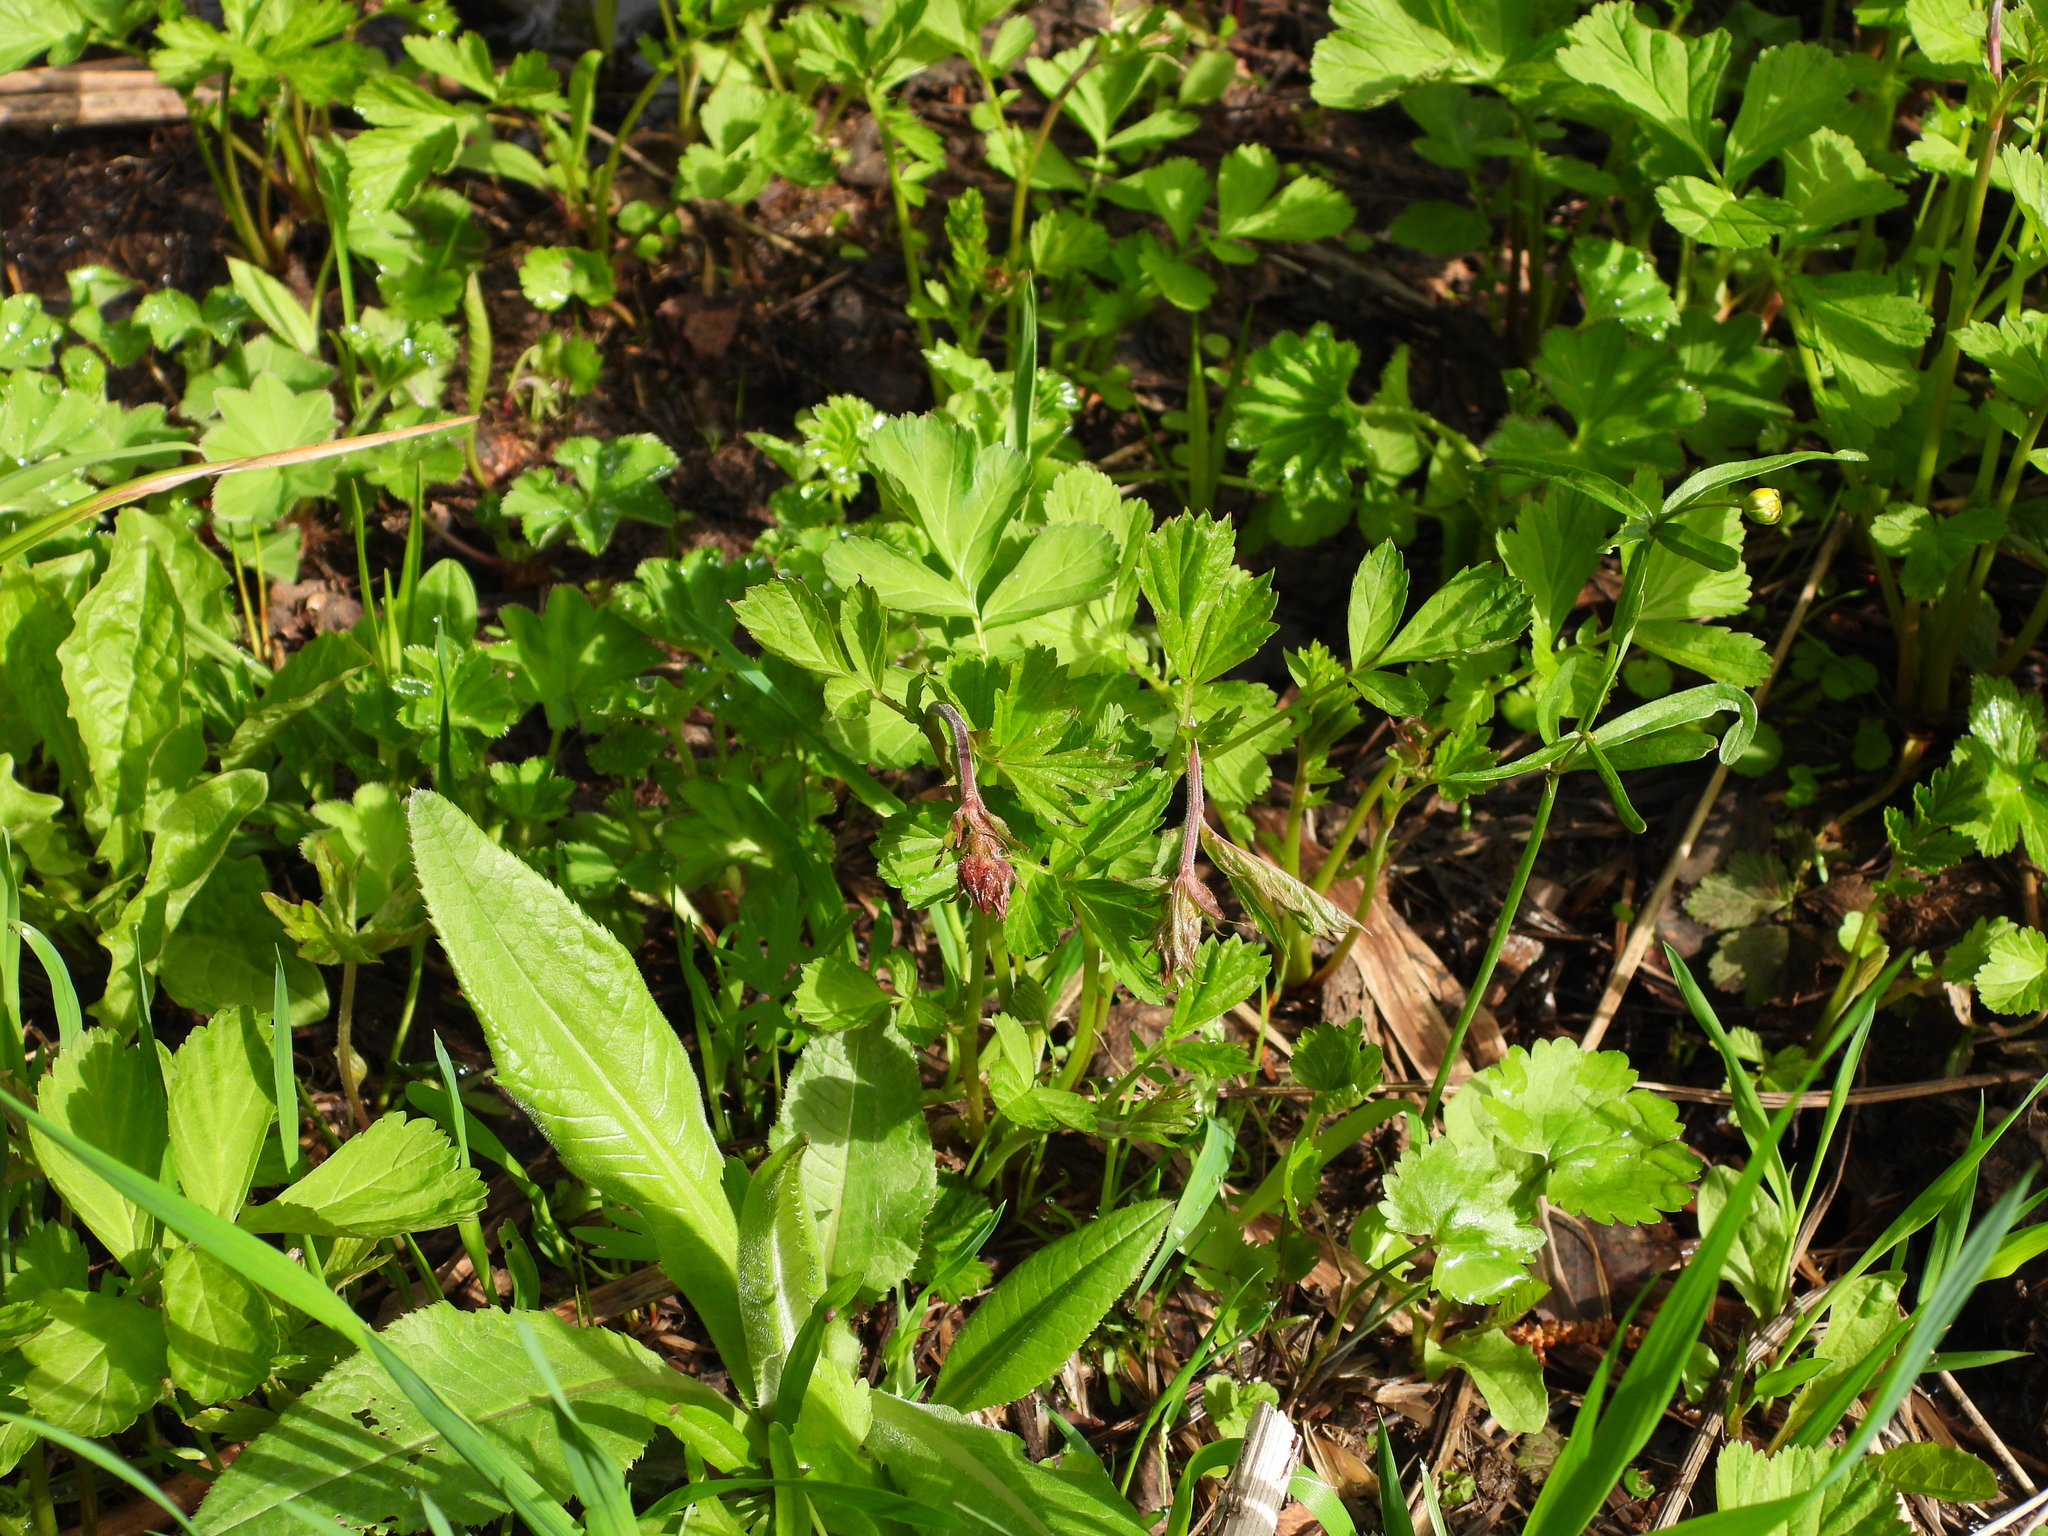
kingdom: Plantae
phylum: Tracheophyta
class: Magnoliopsida
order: Rosales
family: Rosaceae
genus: Geum
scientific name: Geum rivale
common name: Water avens
